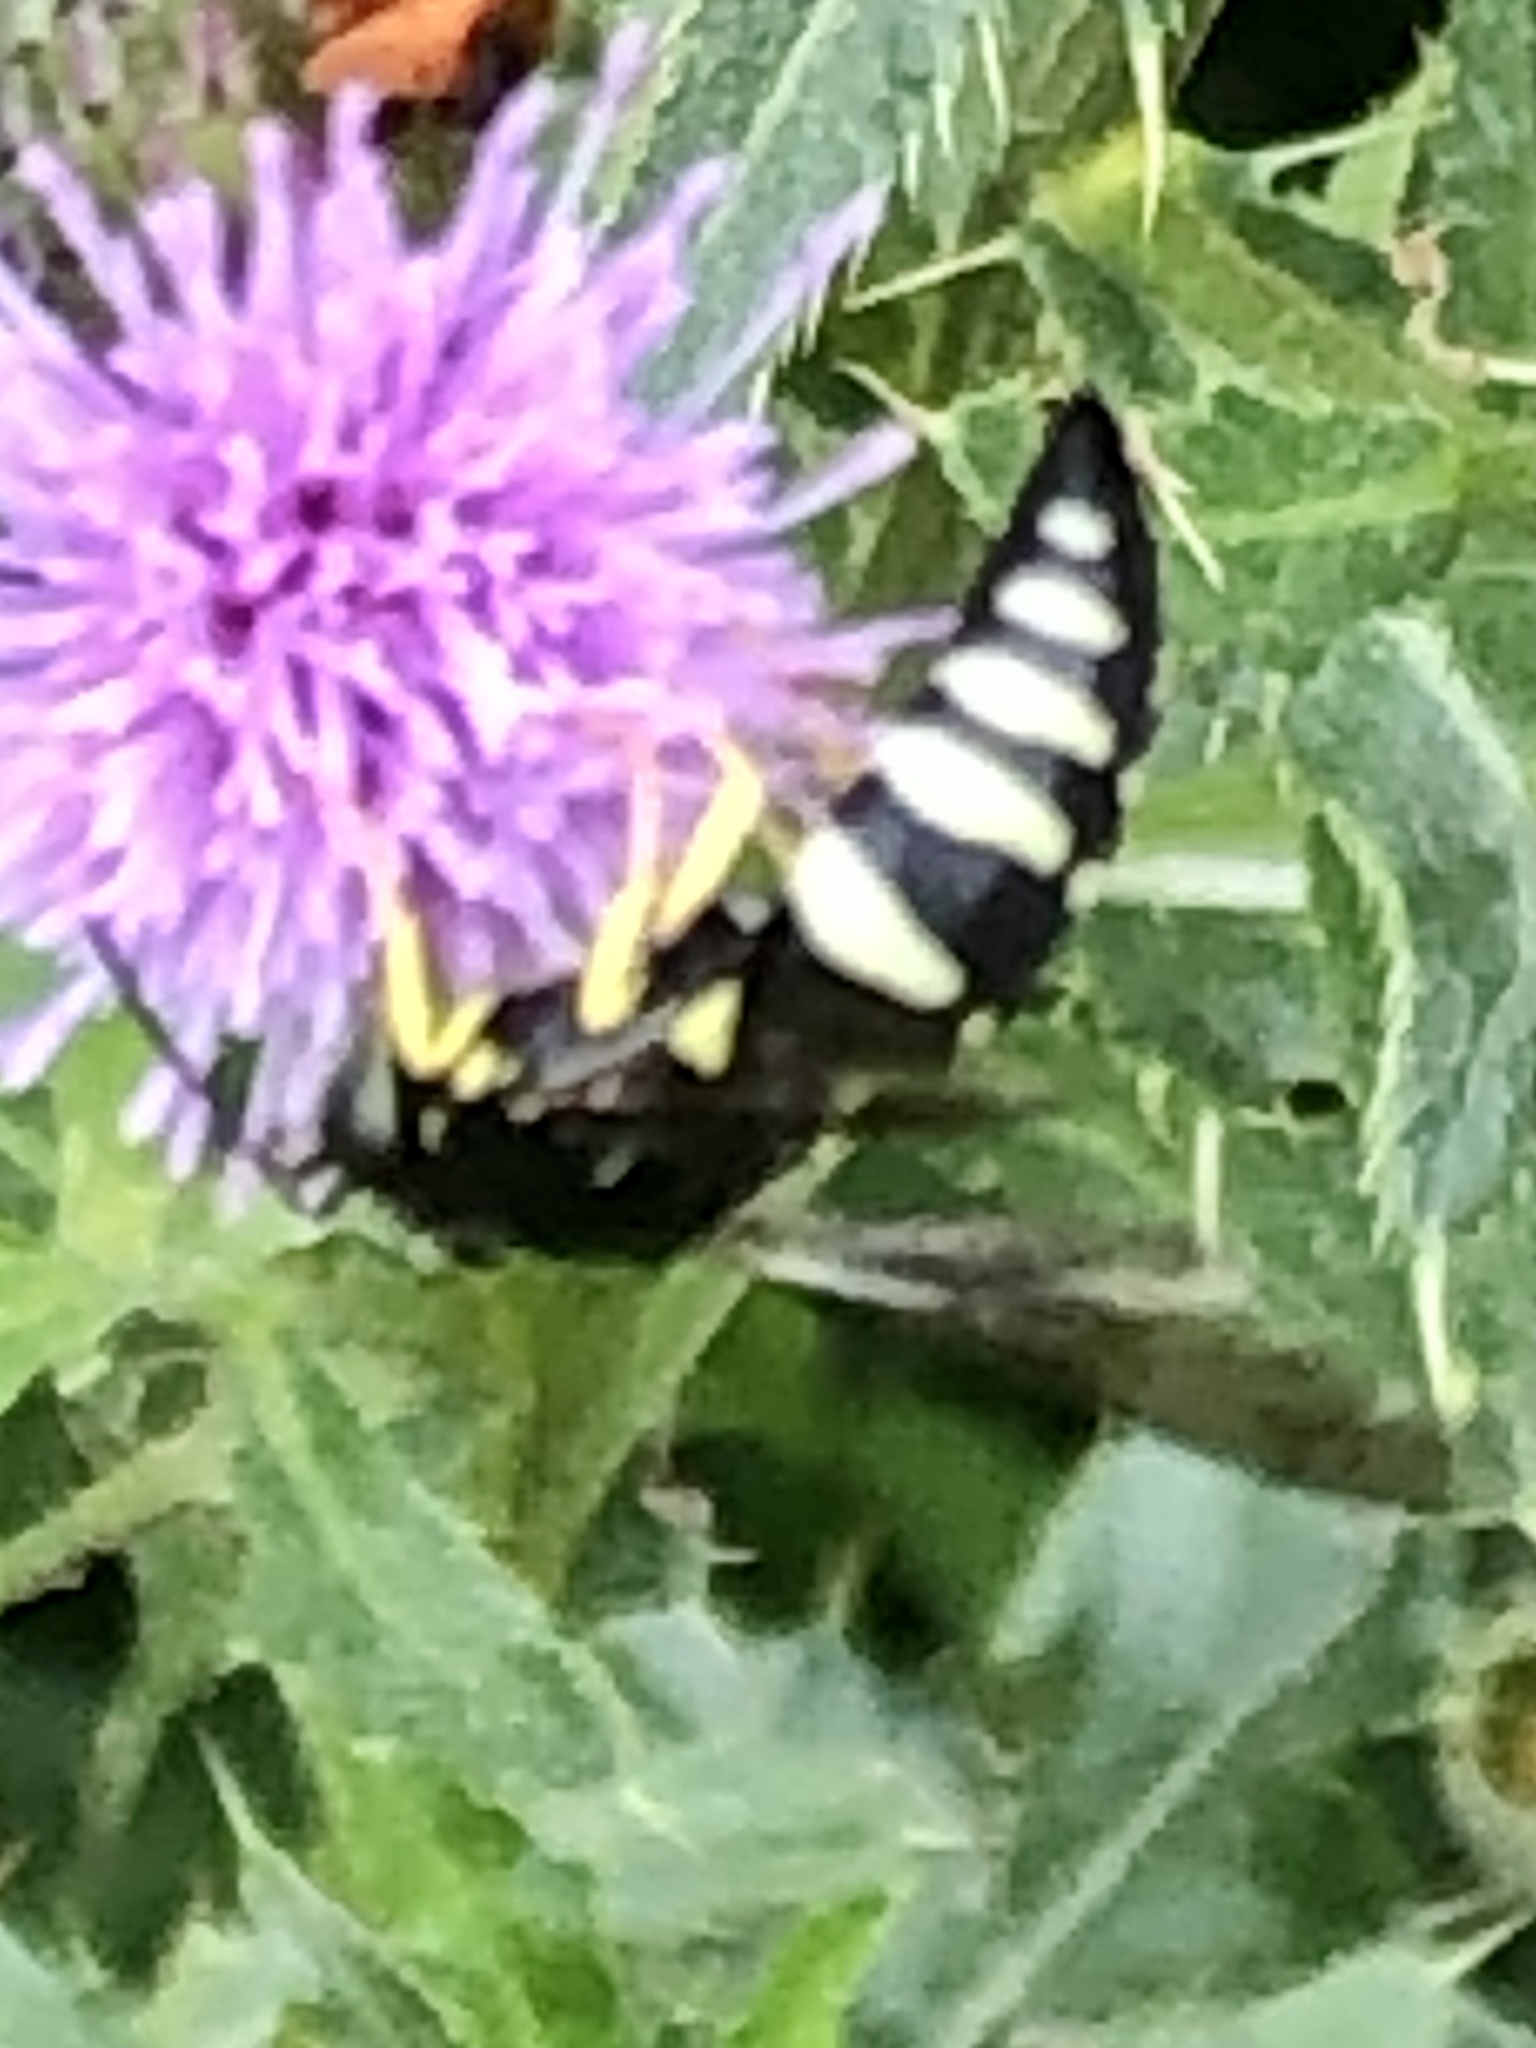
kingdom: Animalia
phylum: Arthropoda
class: Insecta
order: Hymenoptera
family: Crabronidae
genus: Bicyrtes
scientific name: Bicyrtes quadrifasciatus
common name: Four-banded stink bug hunter wasp
